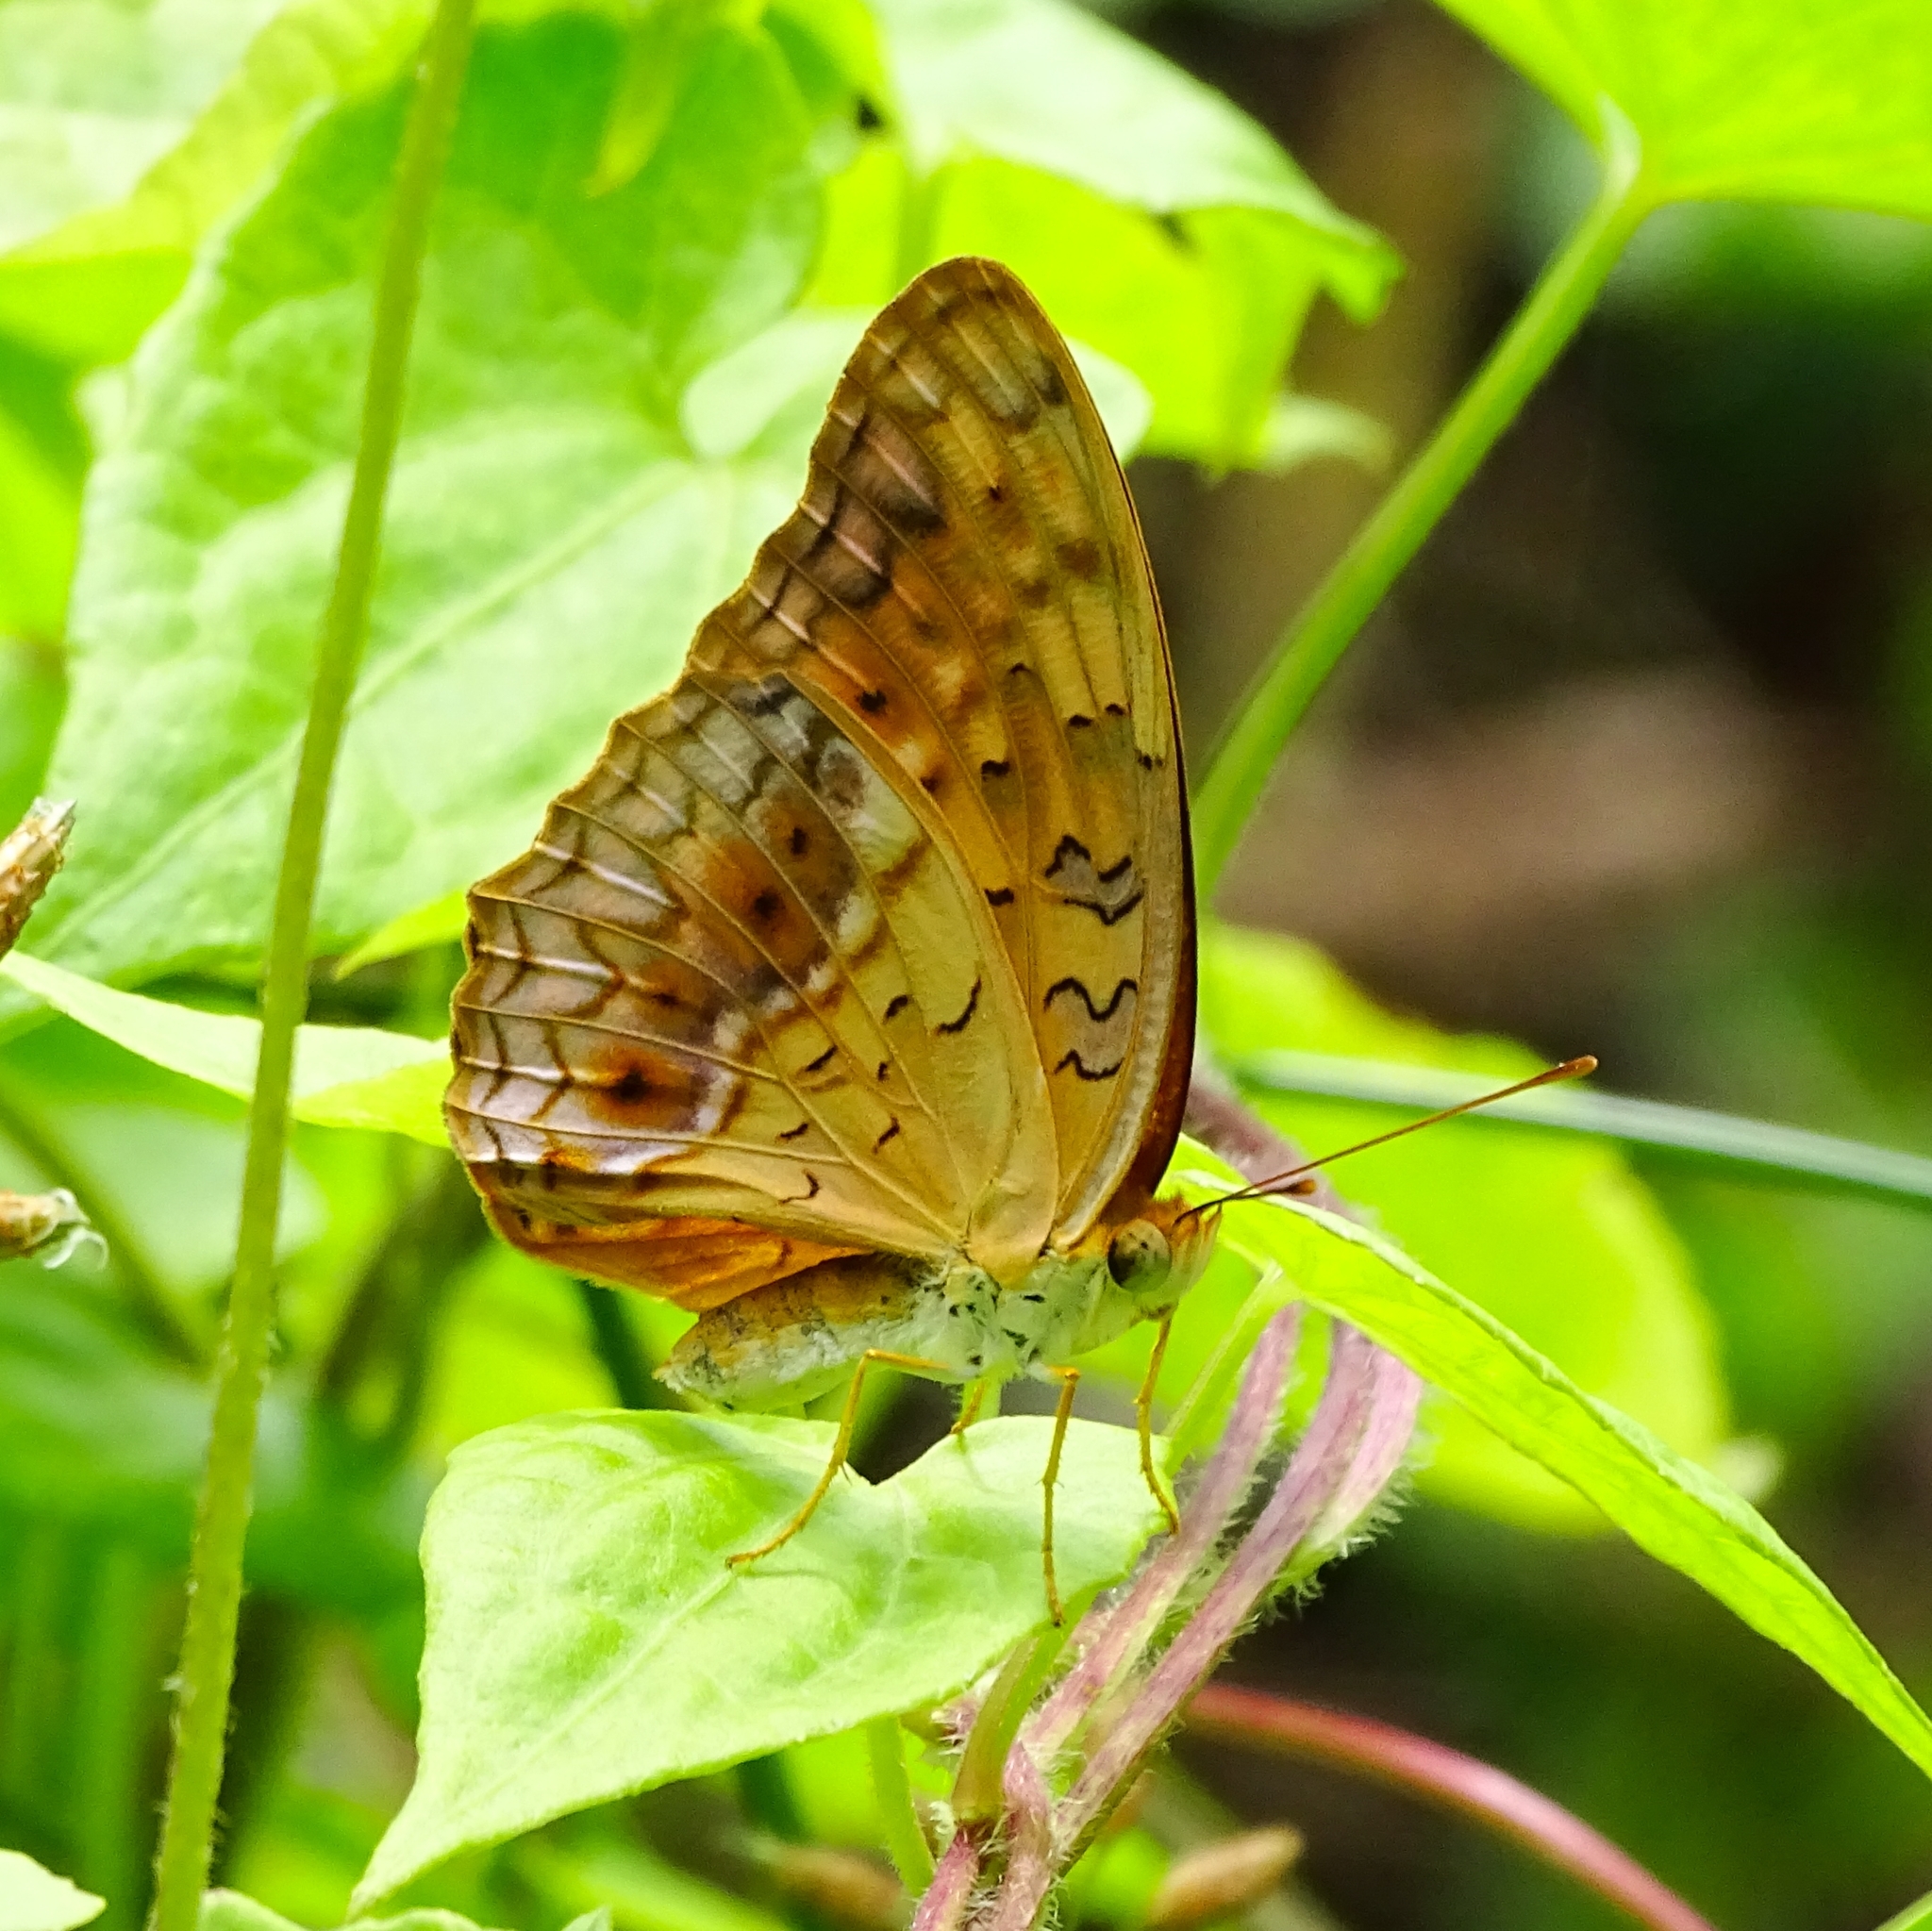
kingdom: Animalia
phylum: Arthropoda
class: Insecta
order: Lepidoptera
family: Nymphalidae
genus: Phalanta
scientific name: Phalanta phalantha
